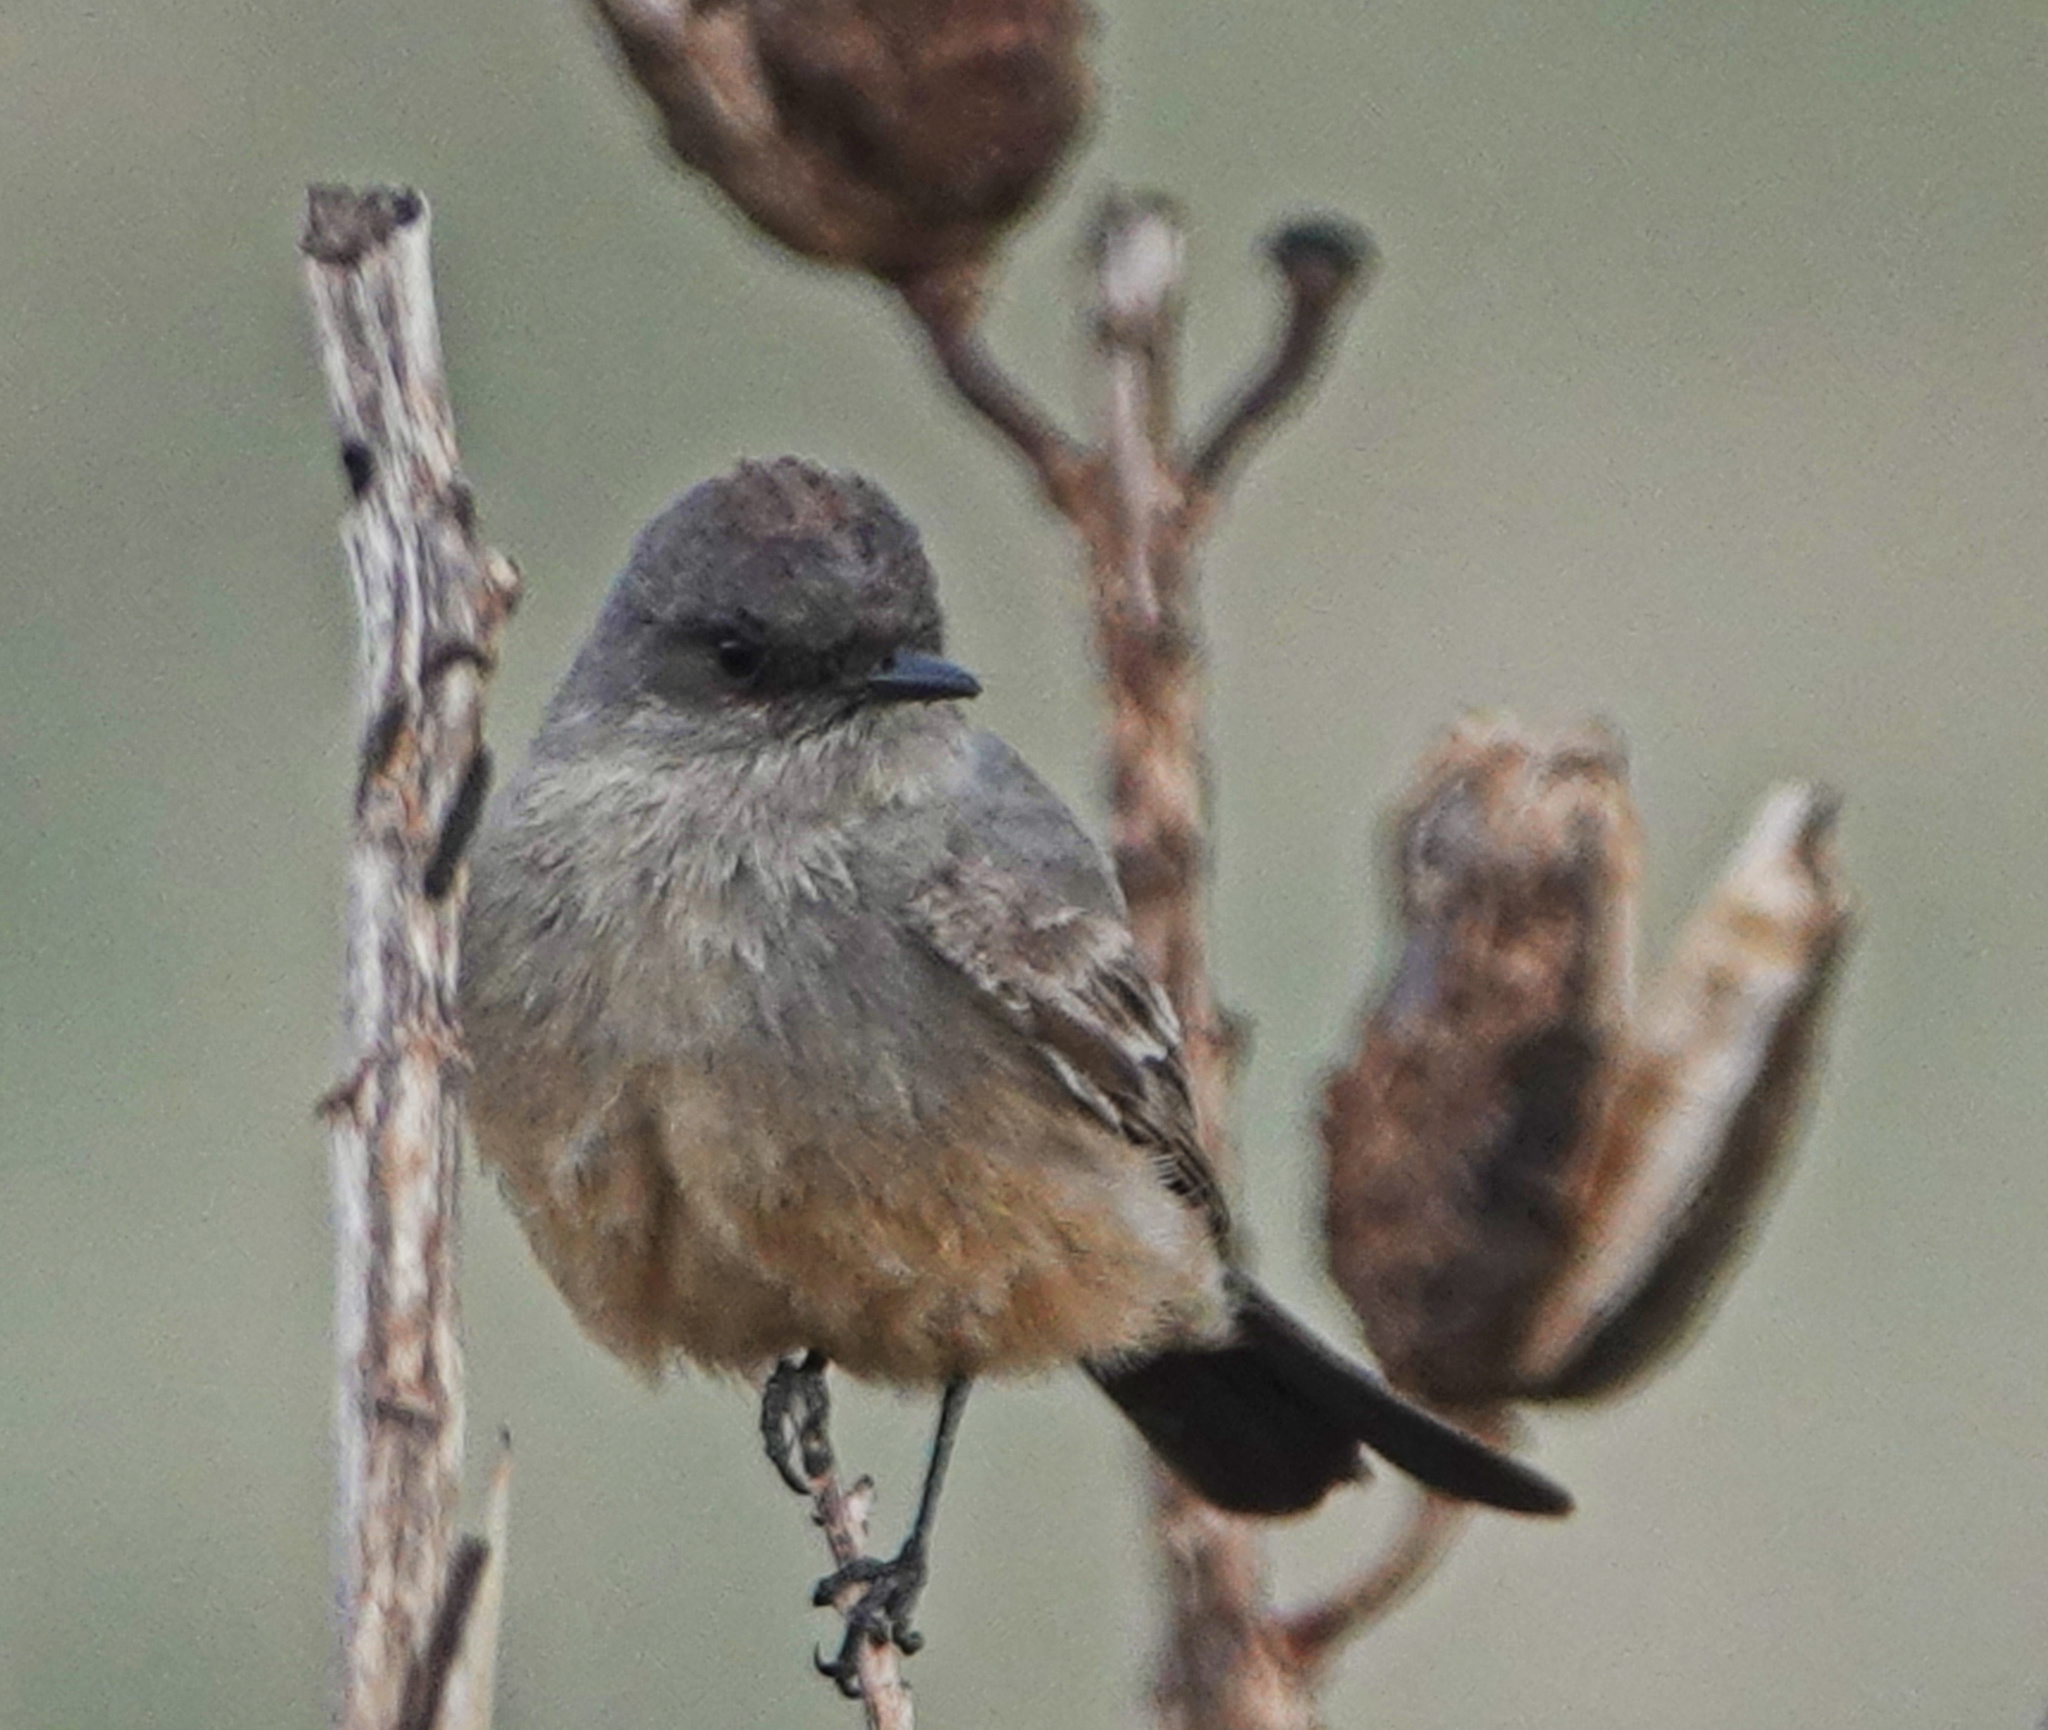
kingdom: Animalia
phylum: Chordata
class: Aves
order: Passeriformes
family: Tyrannidae
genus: Sayornis
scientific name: Sayornis saya
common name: Say's phoebe
